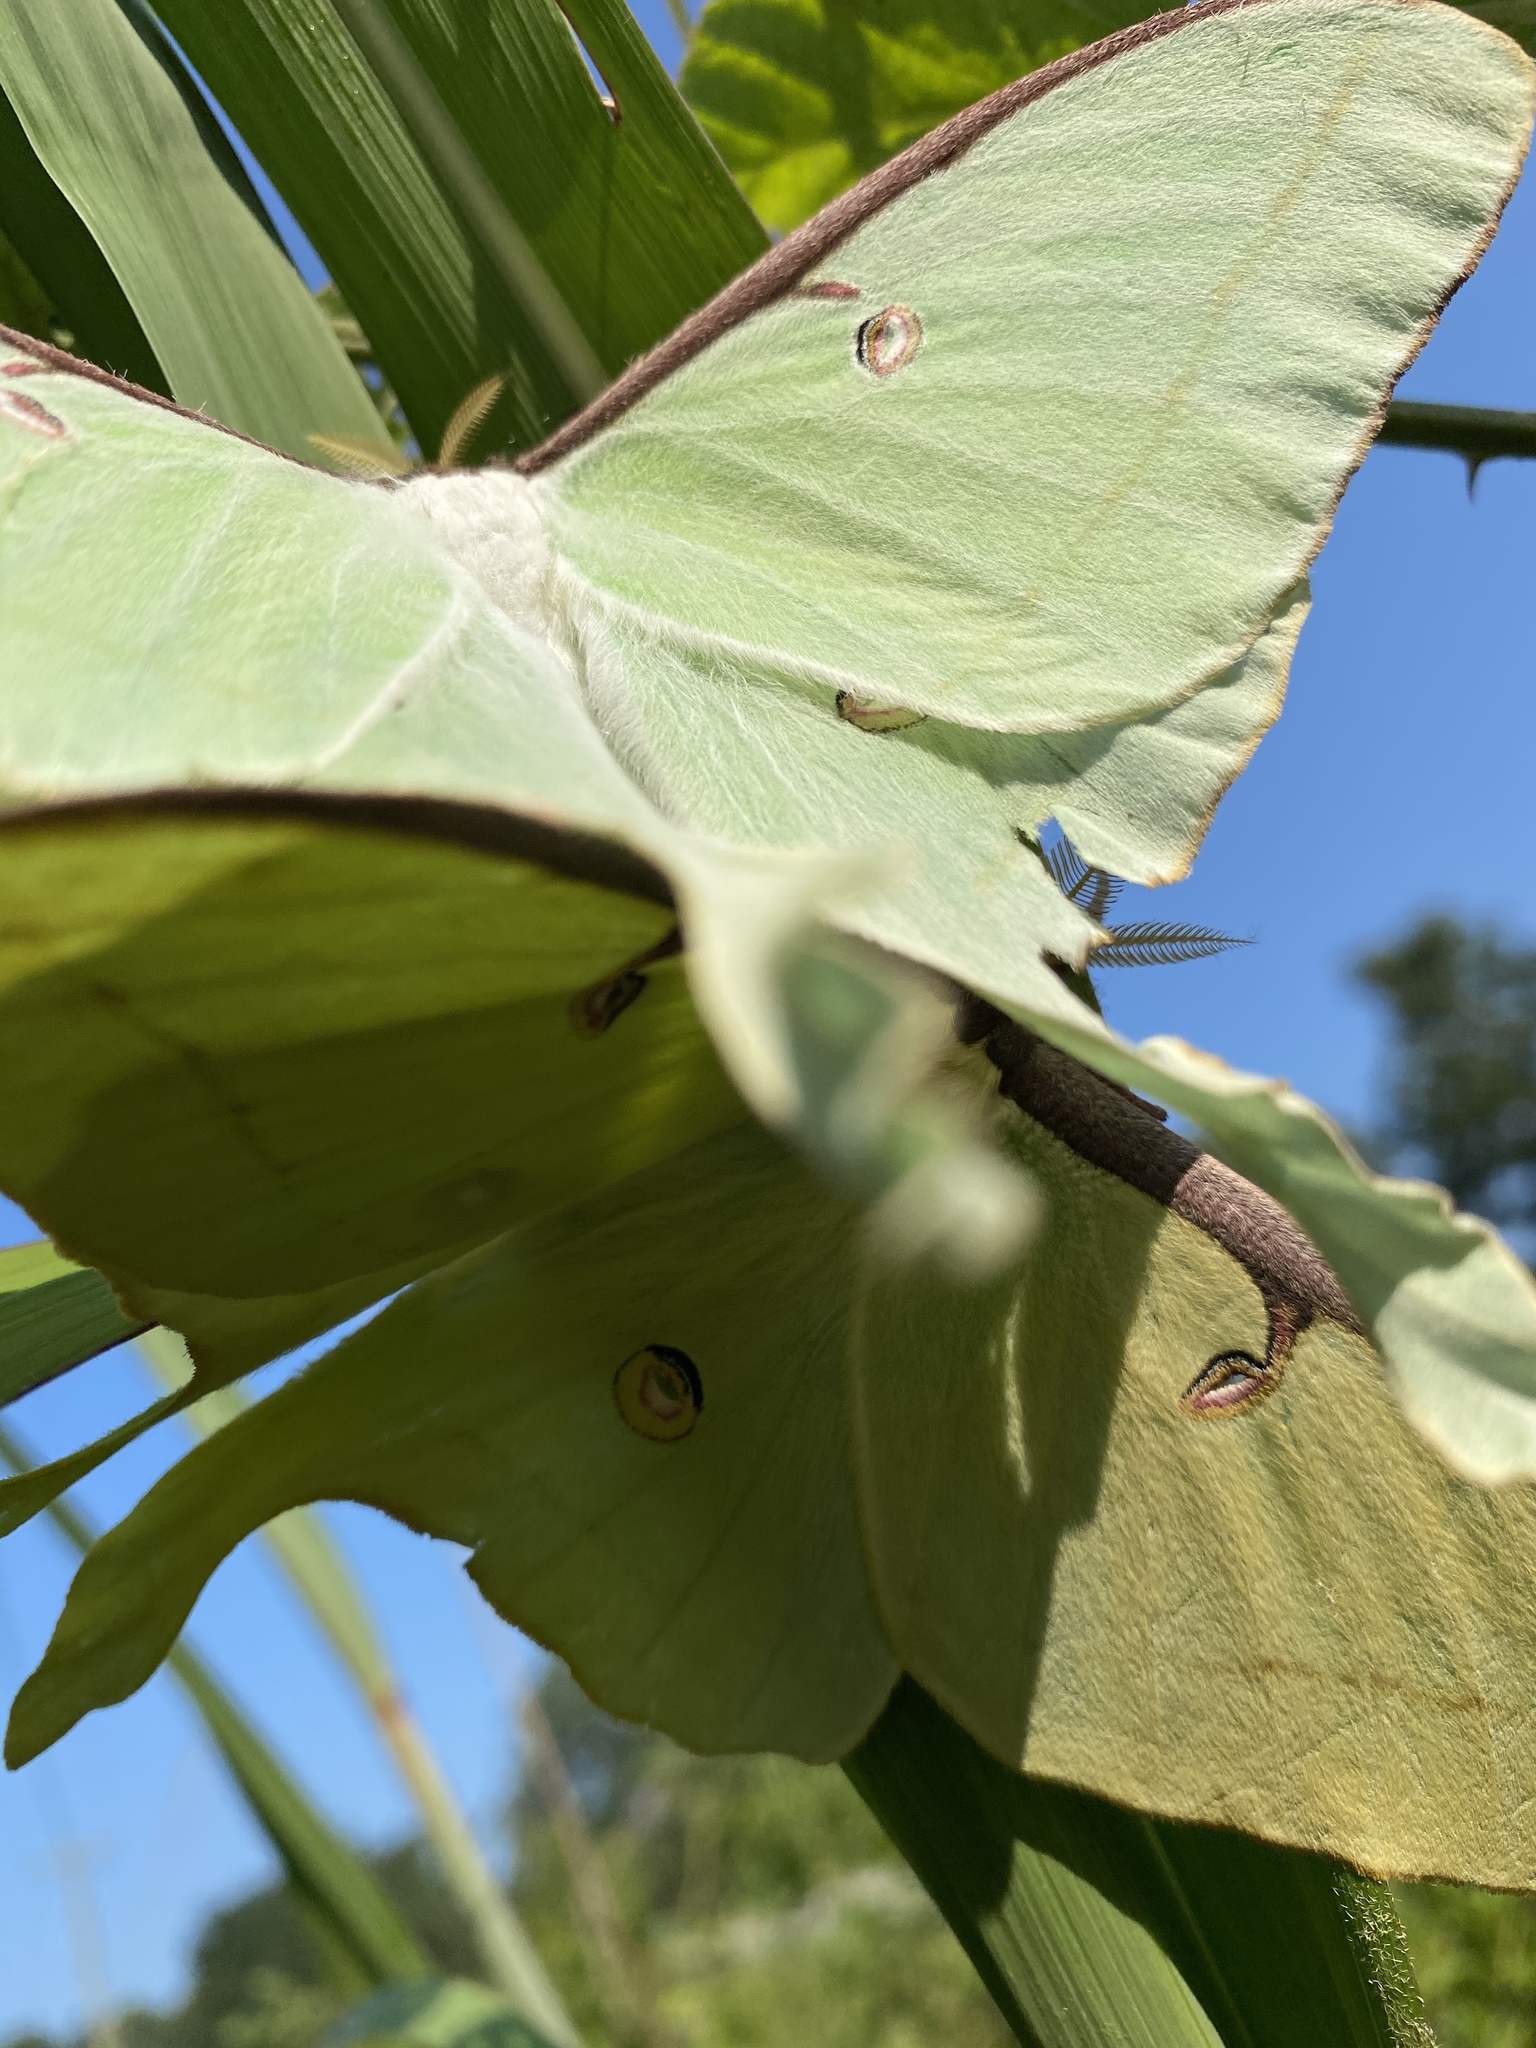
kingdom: Animalia
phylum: Arthropoda
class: Insecta
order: Lepidoptera
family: Saturniidae
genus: Actias
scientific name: Actias luna
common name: Luna moth
